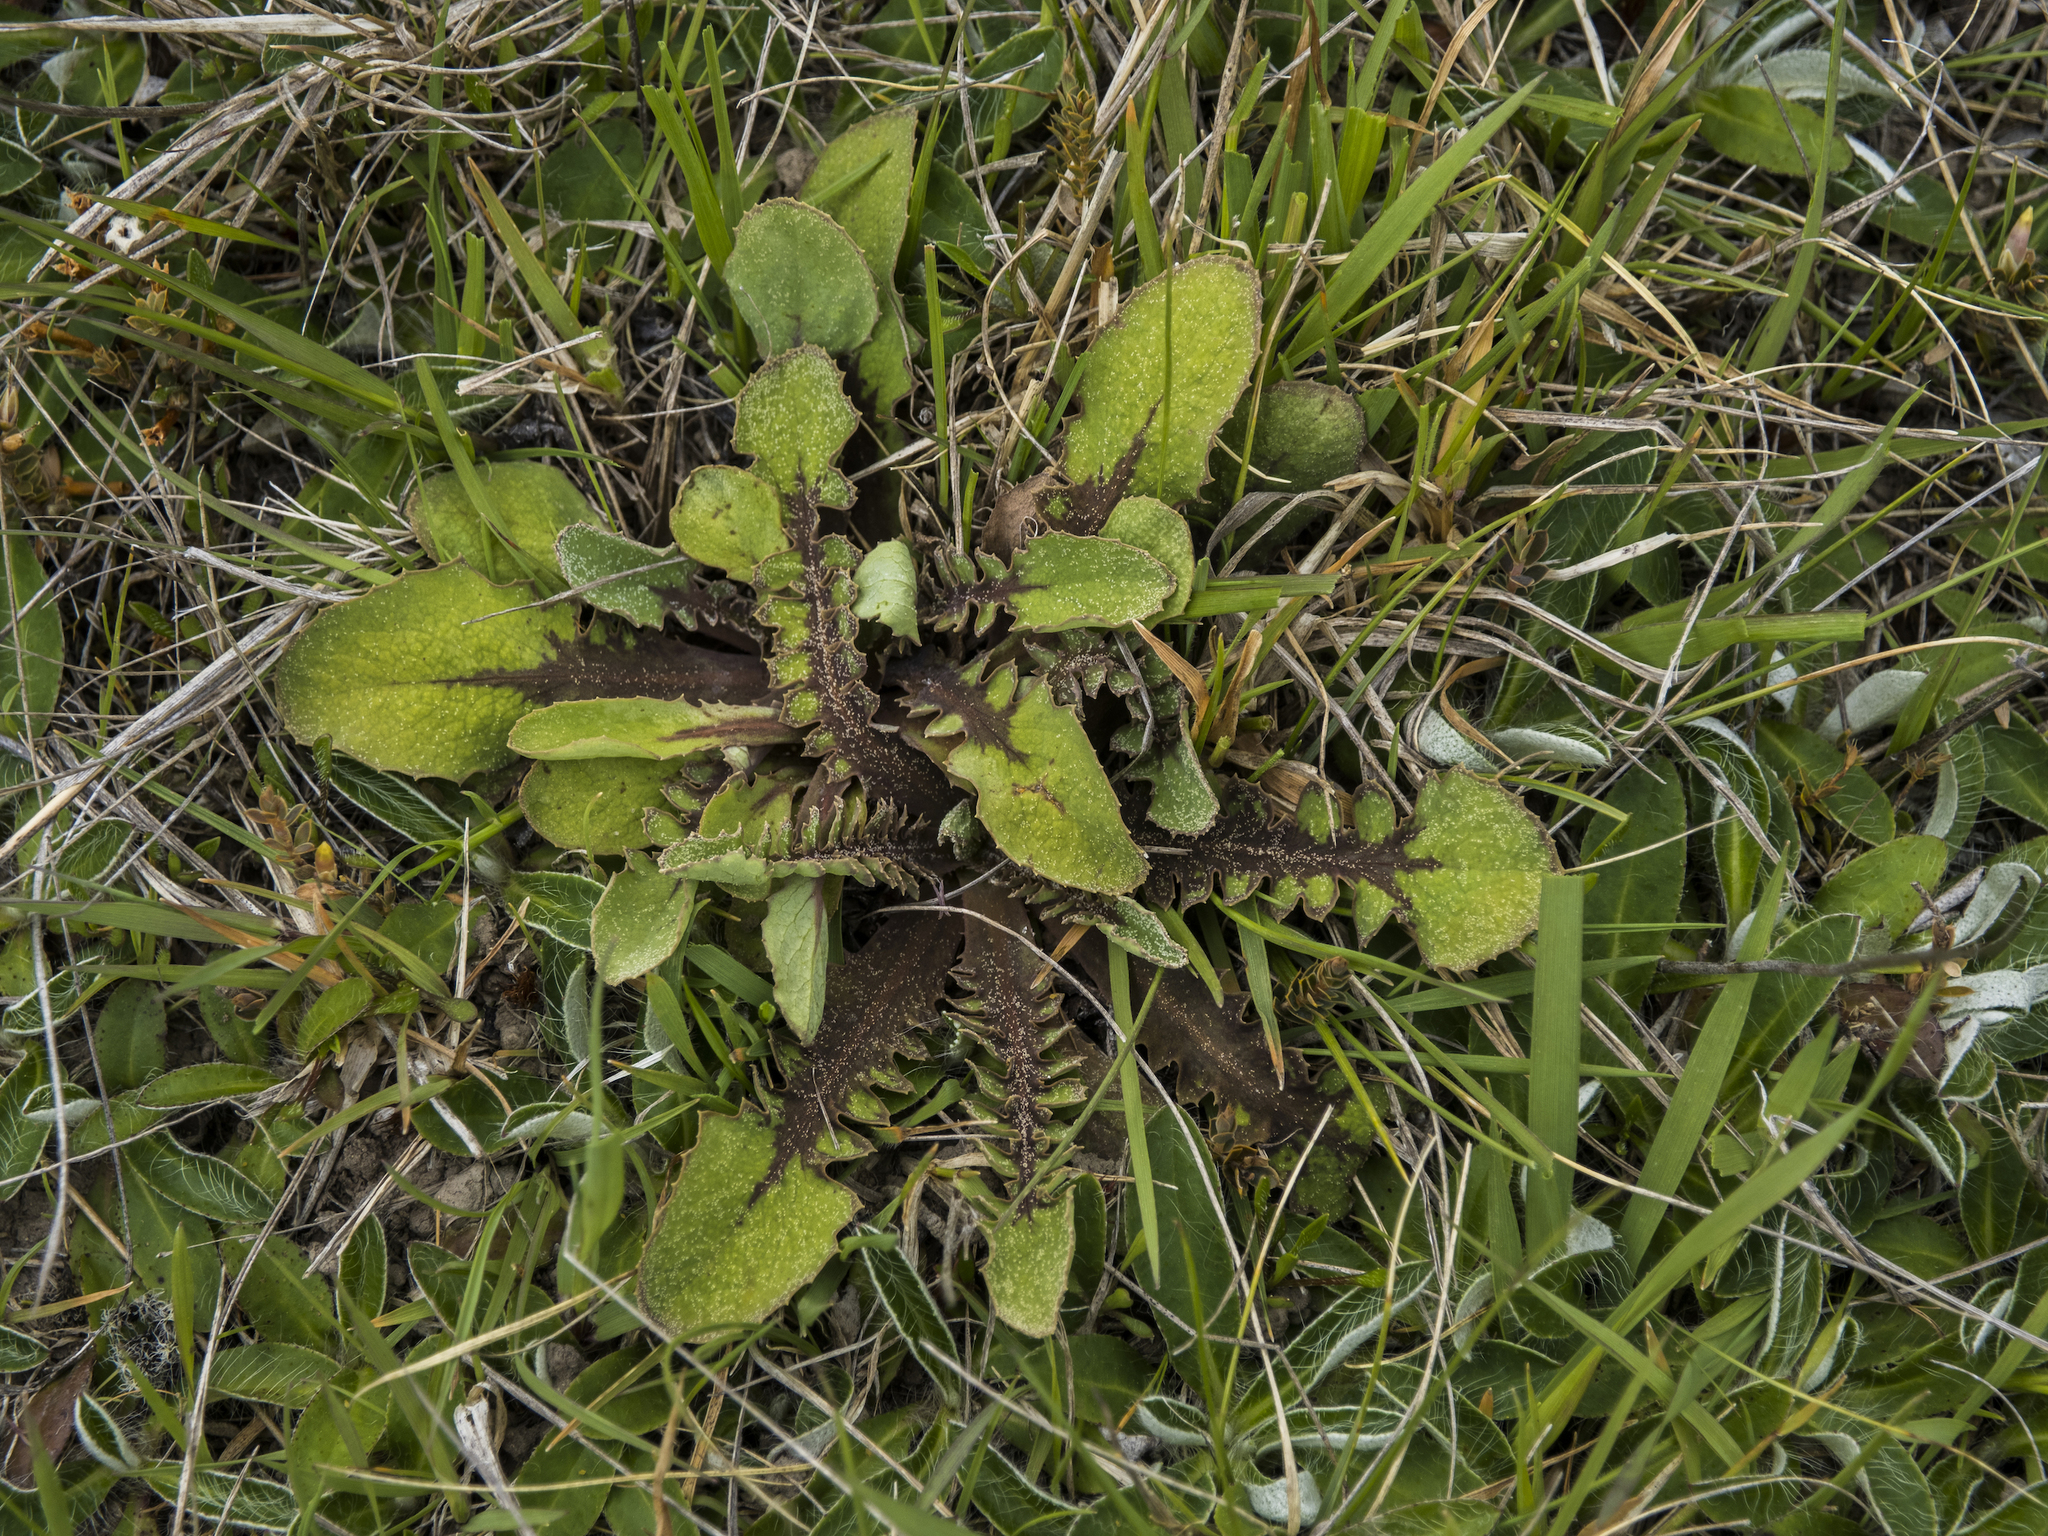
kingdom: Plantae
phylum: Tracheophyta
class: Magnoliopsida
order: Asterales
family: Asteraceae
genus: Sonchus
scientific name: Sonchus novae-zelandiae
